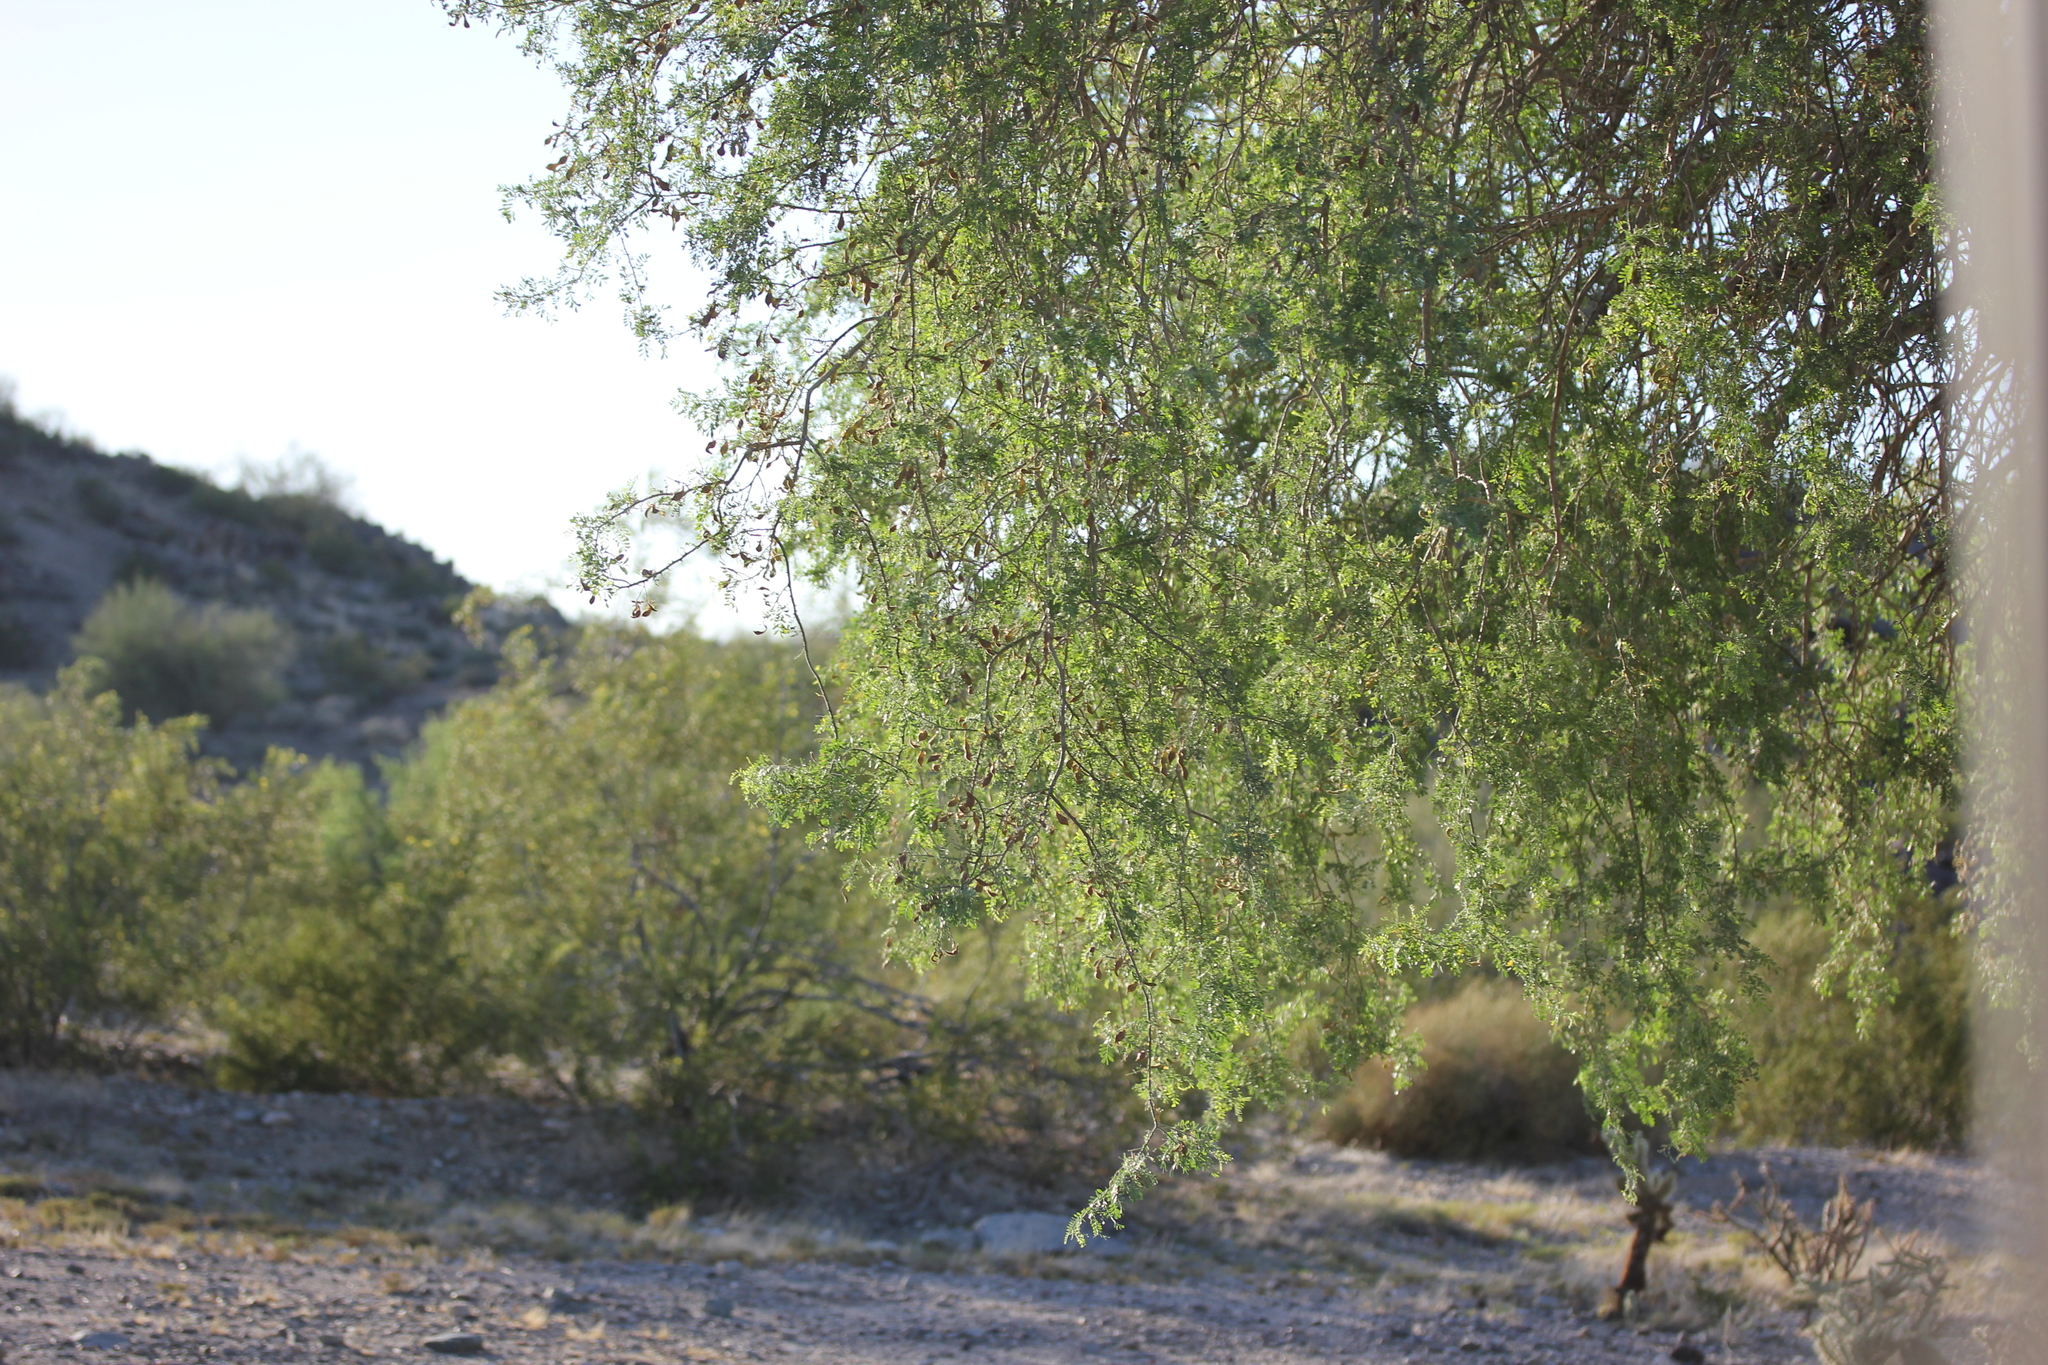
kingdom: Plantae
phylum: Tracheophyta
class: Magnoliopsida
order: Fabales
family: Fabaceae
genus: Olneya
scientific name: Olneya tesota
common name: Desert ironwood
